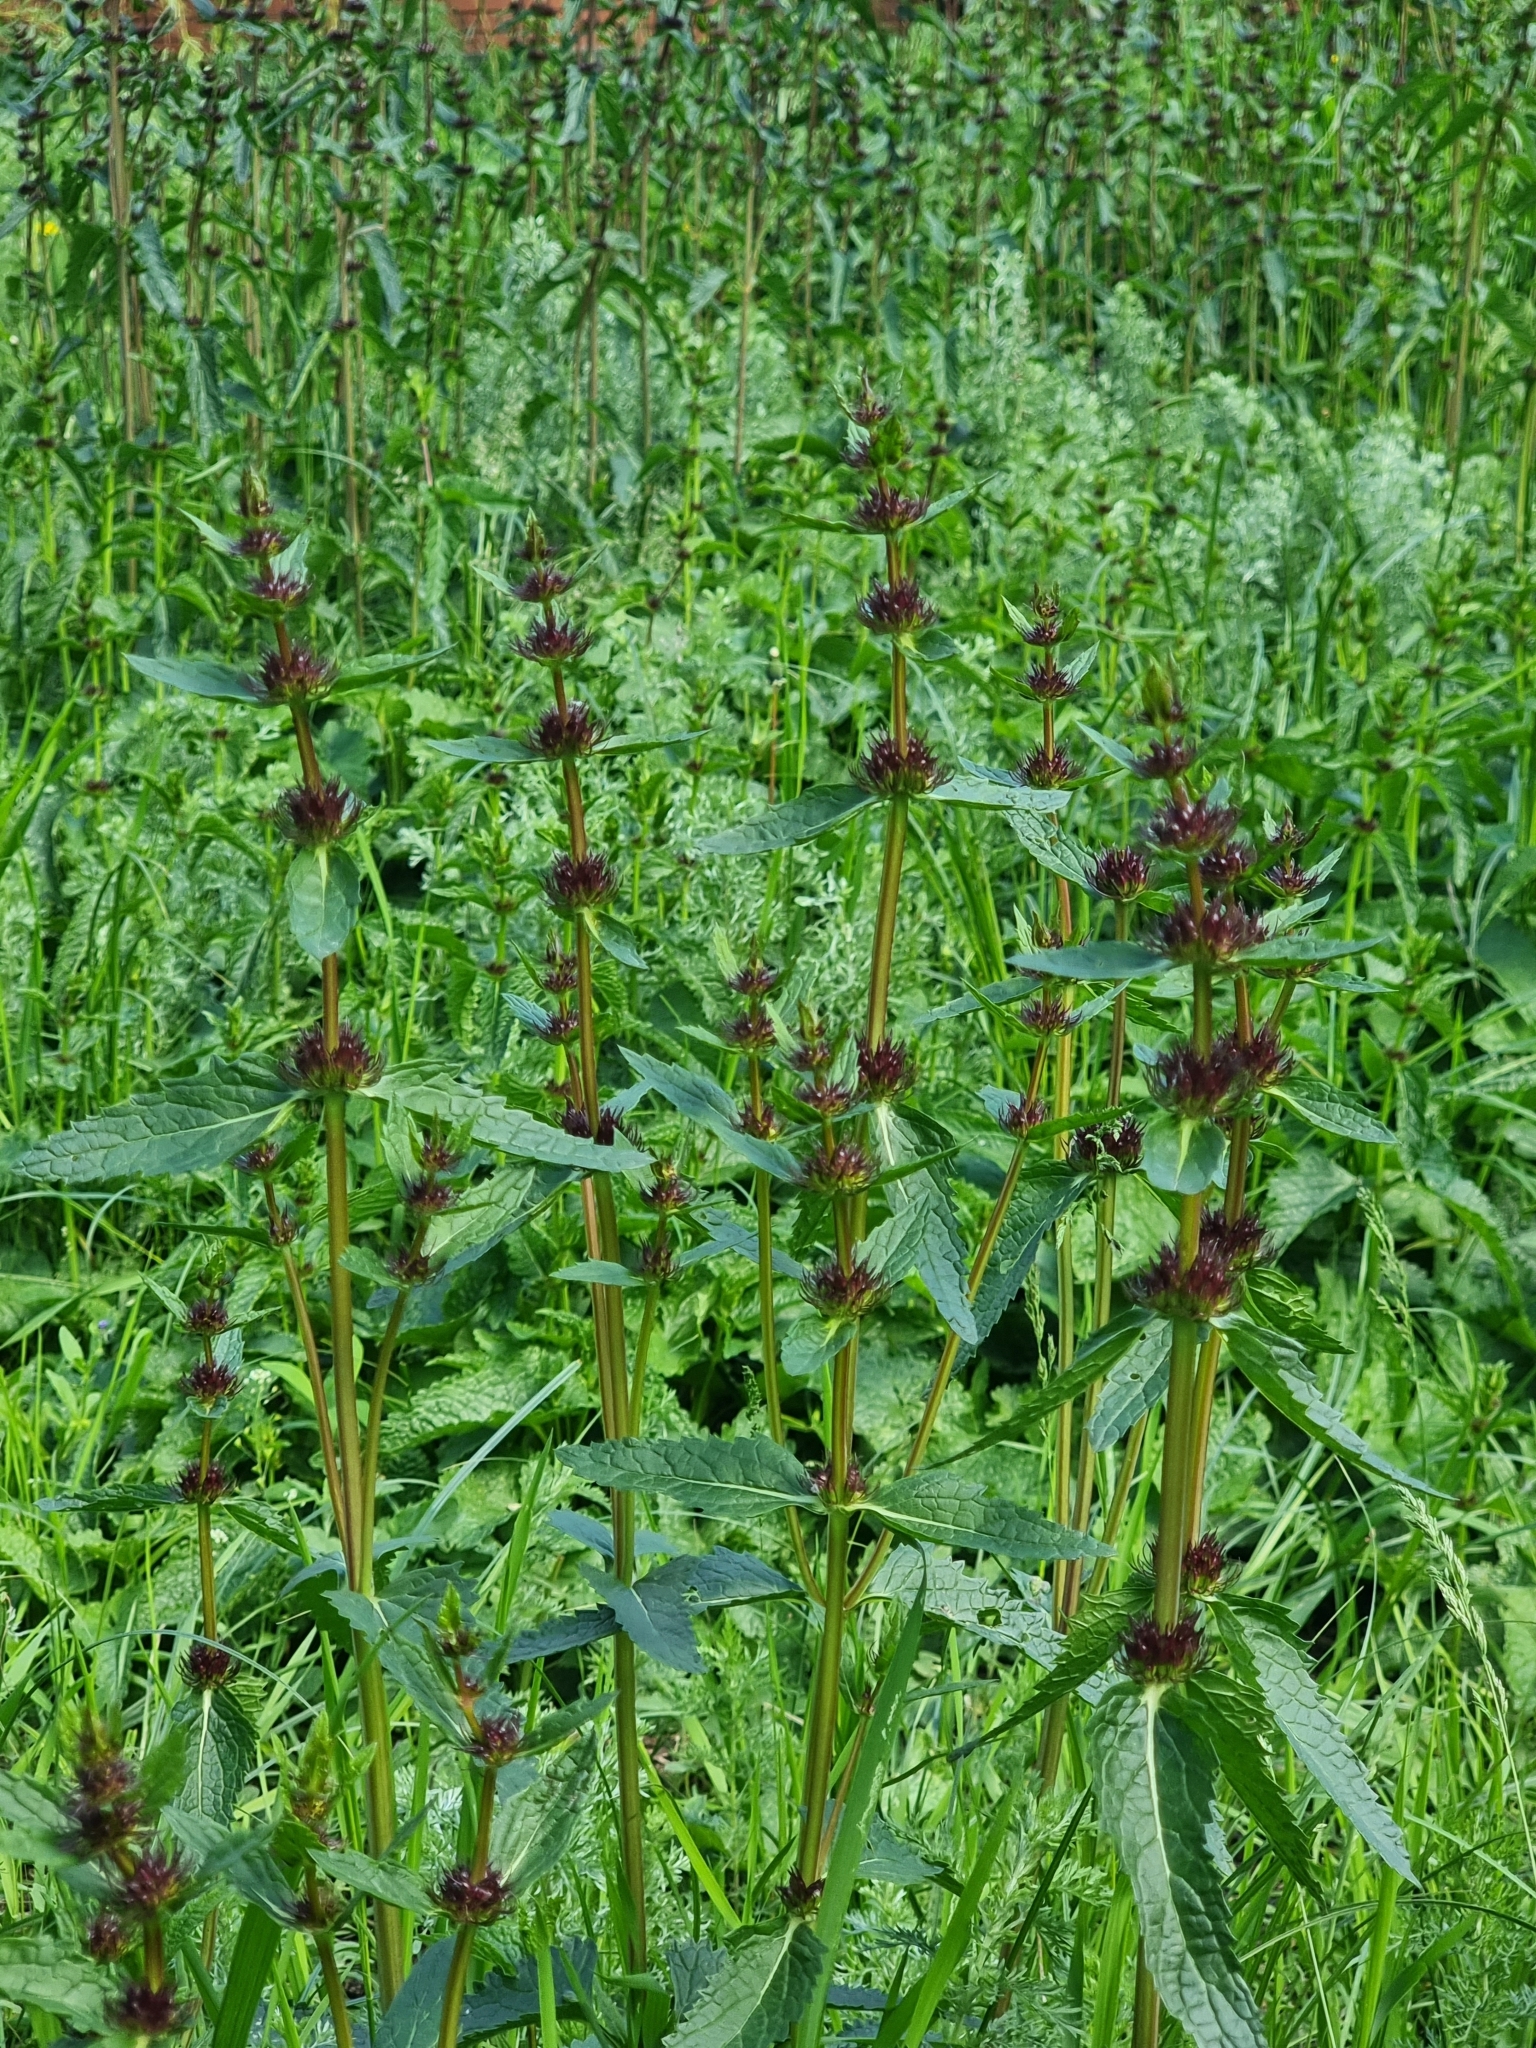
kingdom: Plantae
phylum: Tracheophyta
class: Magnoliopsida
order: Lamiales
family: Lamiaceae
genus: Phlomoides
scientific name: Phlomoides tuberosa
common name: Tuberous jerusalem sage
